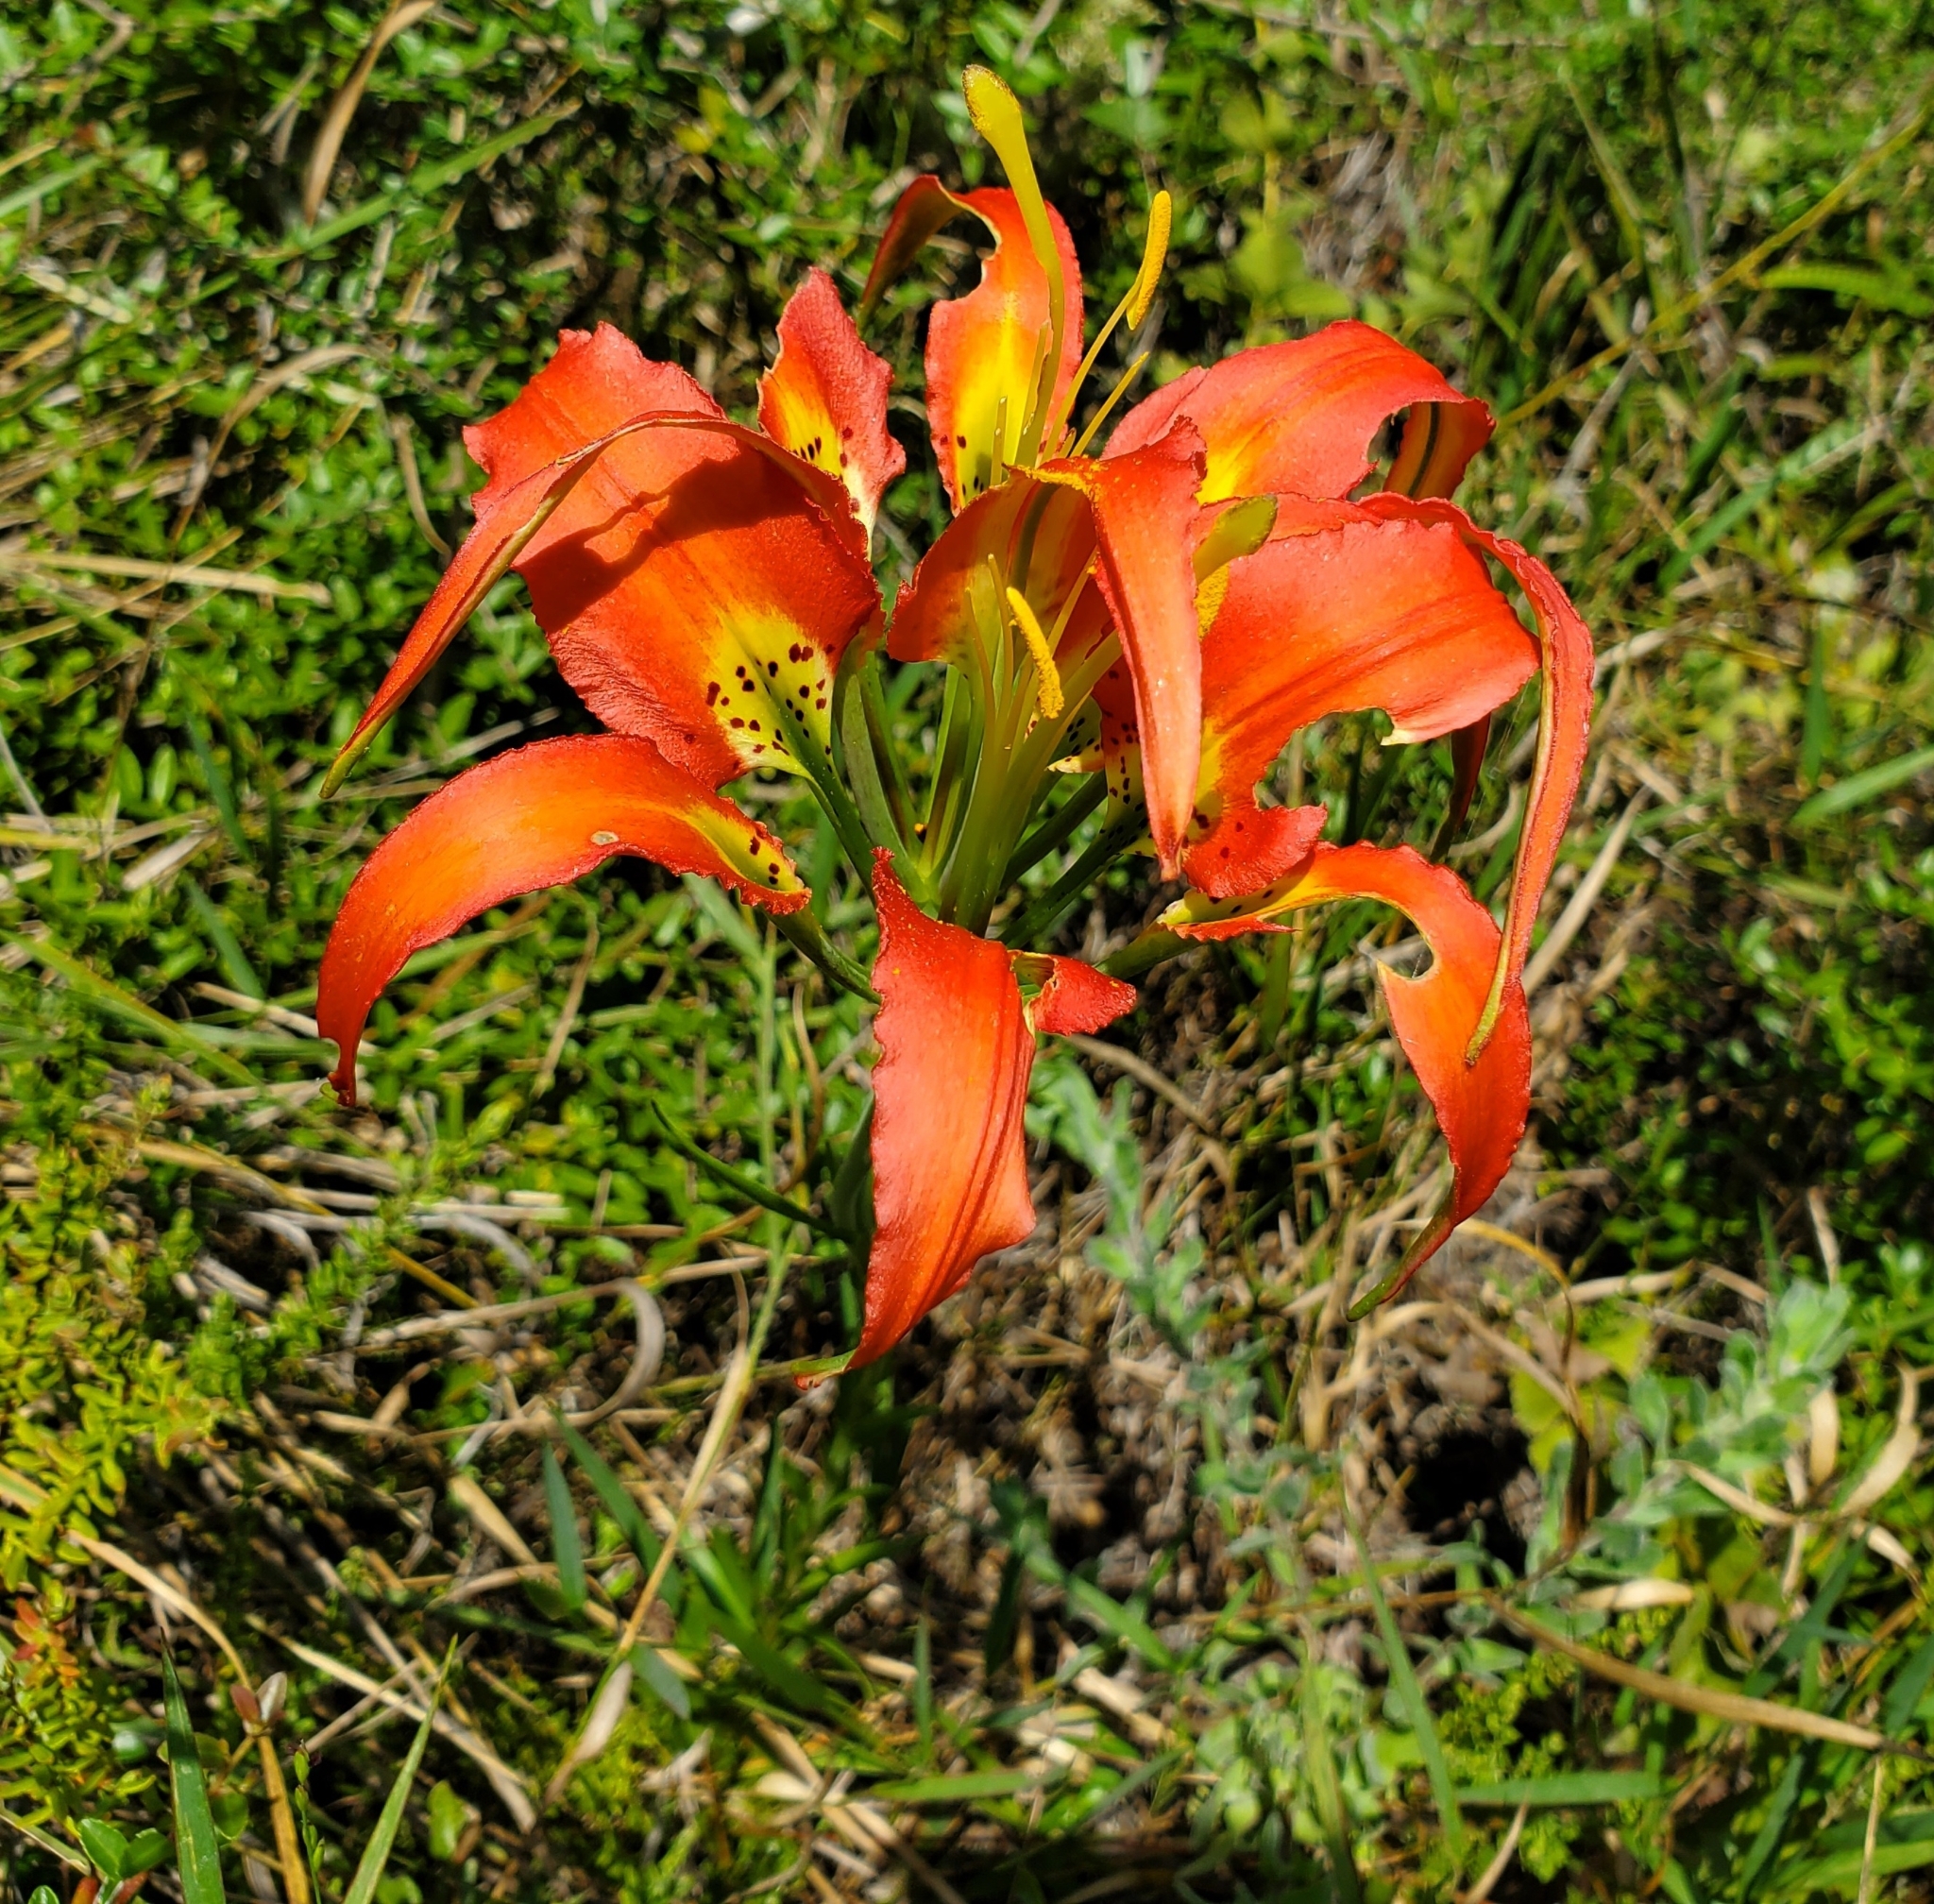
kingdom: Plantae
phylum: Tracheophyta
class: Liliopsida
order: Liliales
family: Liliaceae
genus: Lilium
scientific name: Lilium catesbaei
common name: Catesby's lily
